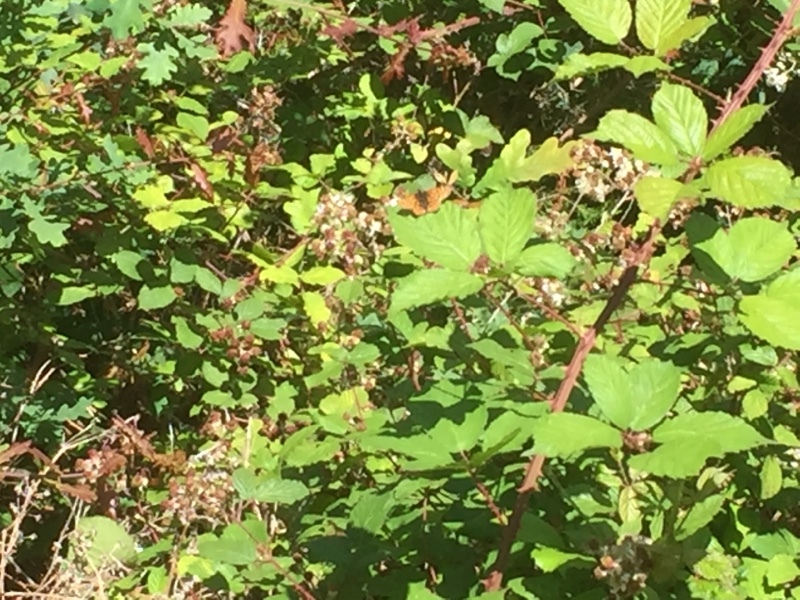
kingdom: Animalia
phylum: Arthropoda
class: Insecta
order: Lepidoptera
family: Nymphalidae
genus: Euphydryas
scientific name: Euphydryas aurinia
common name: Marsh fritillary
